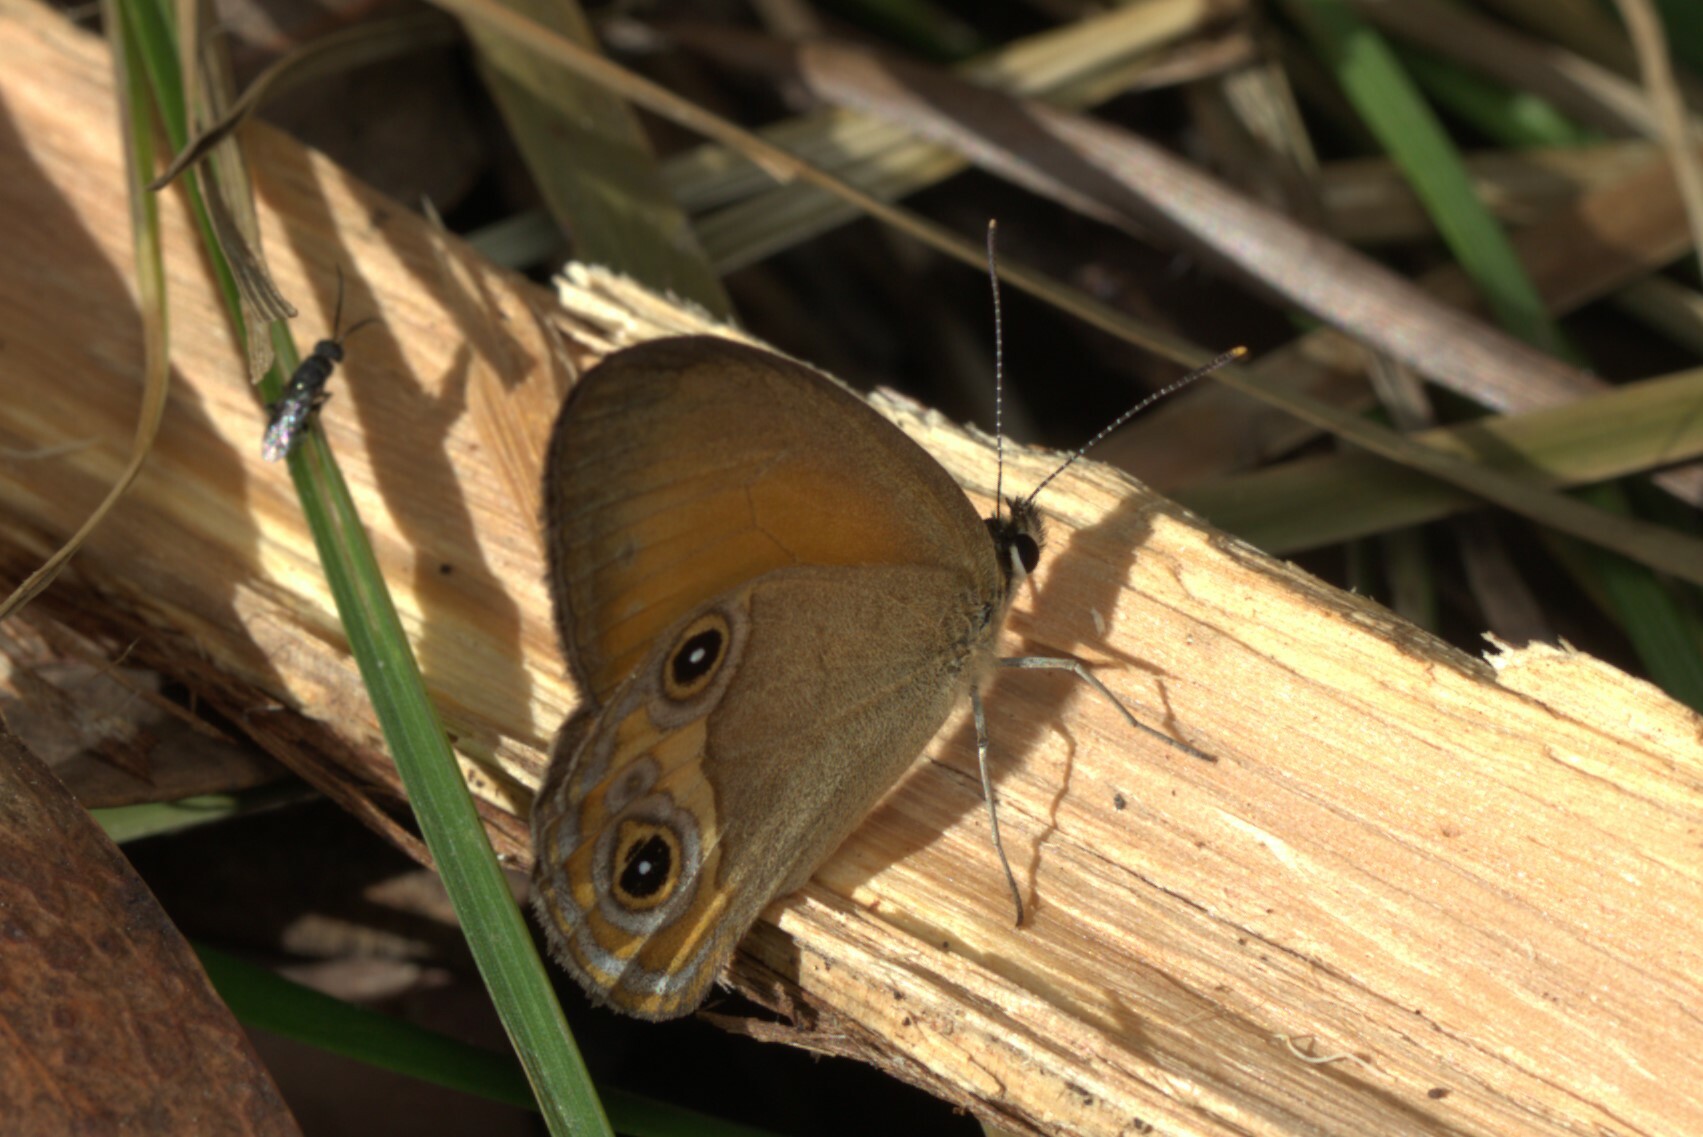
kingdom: Animalia
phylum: Arthropoda
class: Insecta
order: Lepidoptera
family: Nymphalidae
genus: Hypocysta
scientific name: Hypocysta adiante
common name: Orange ringlet
